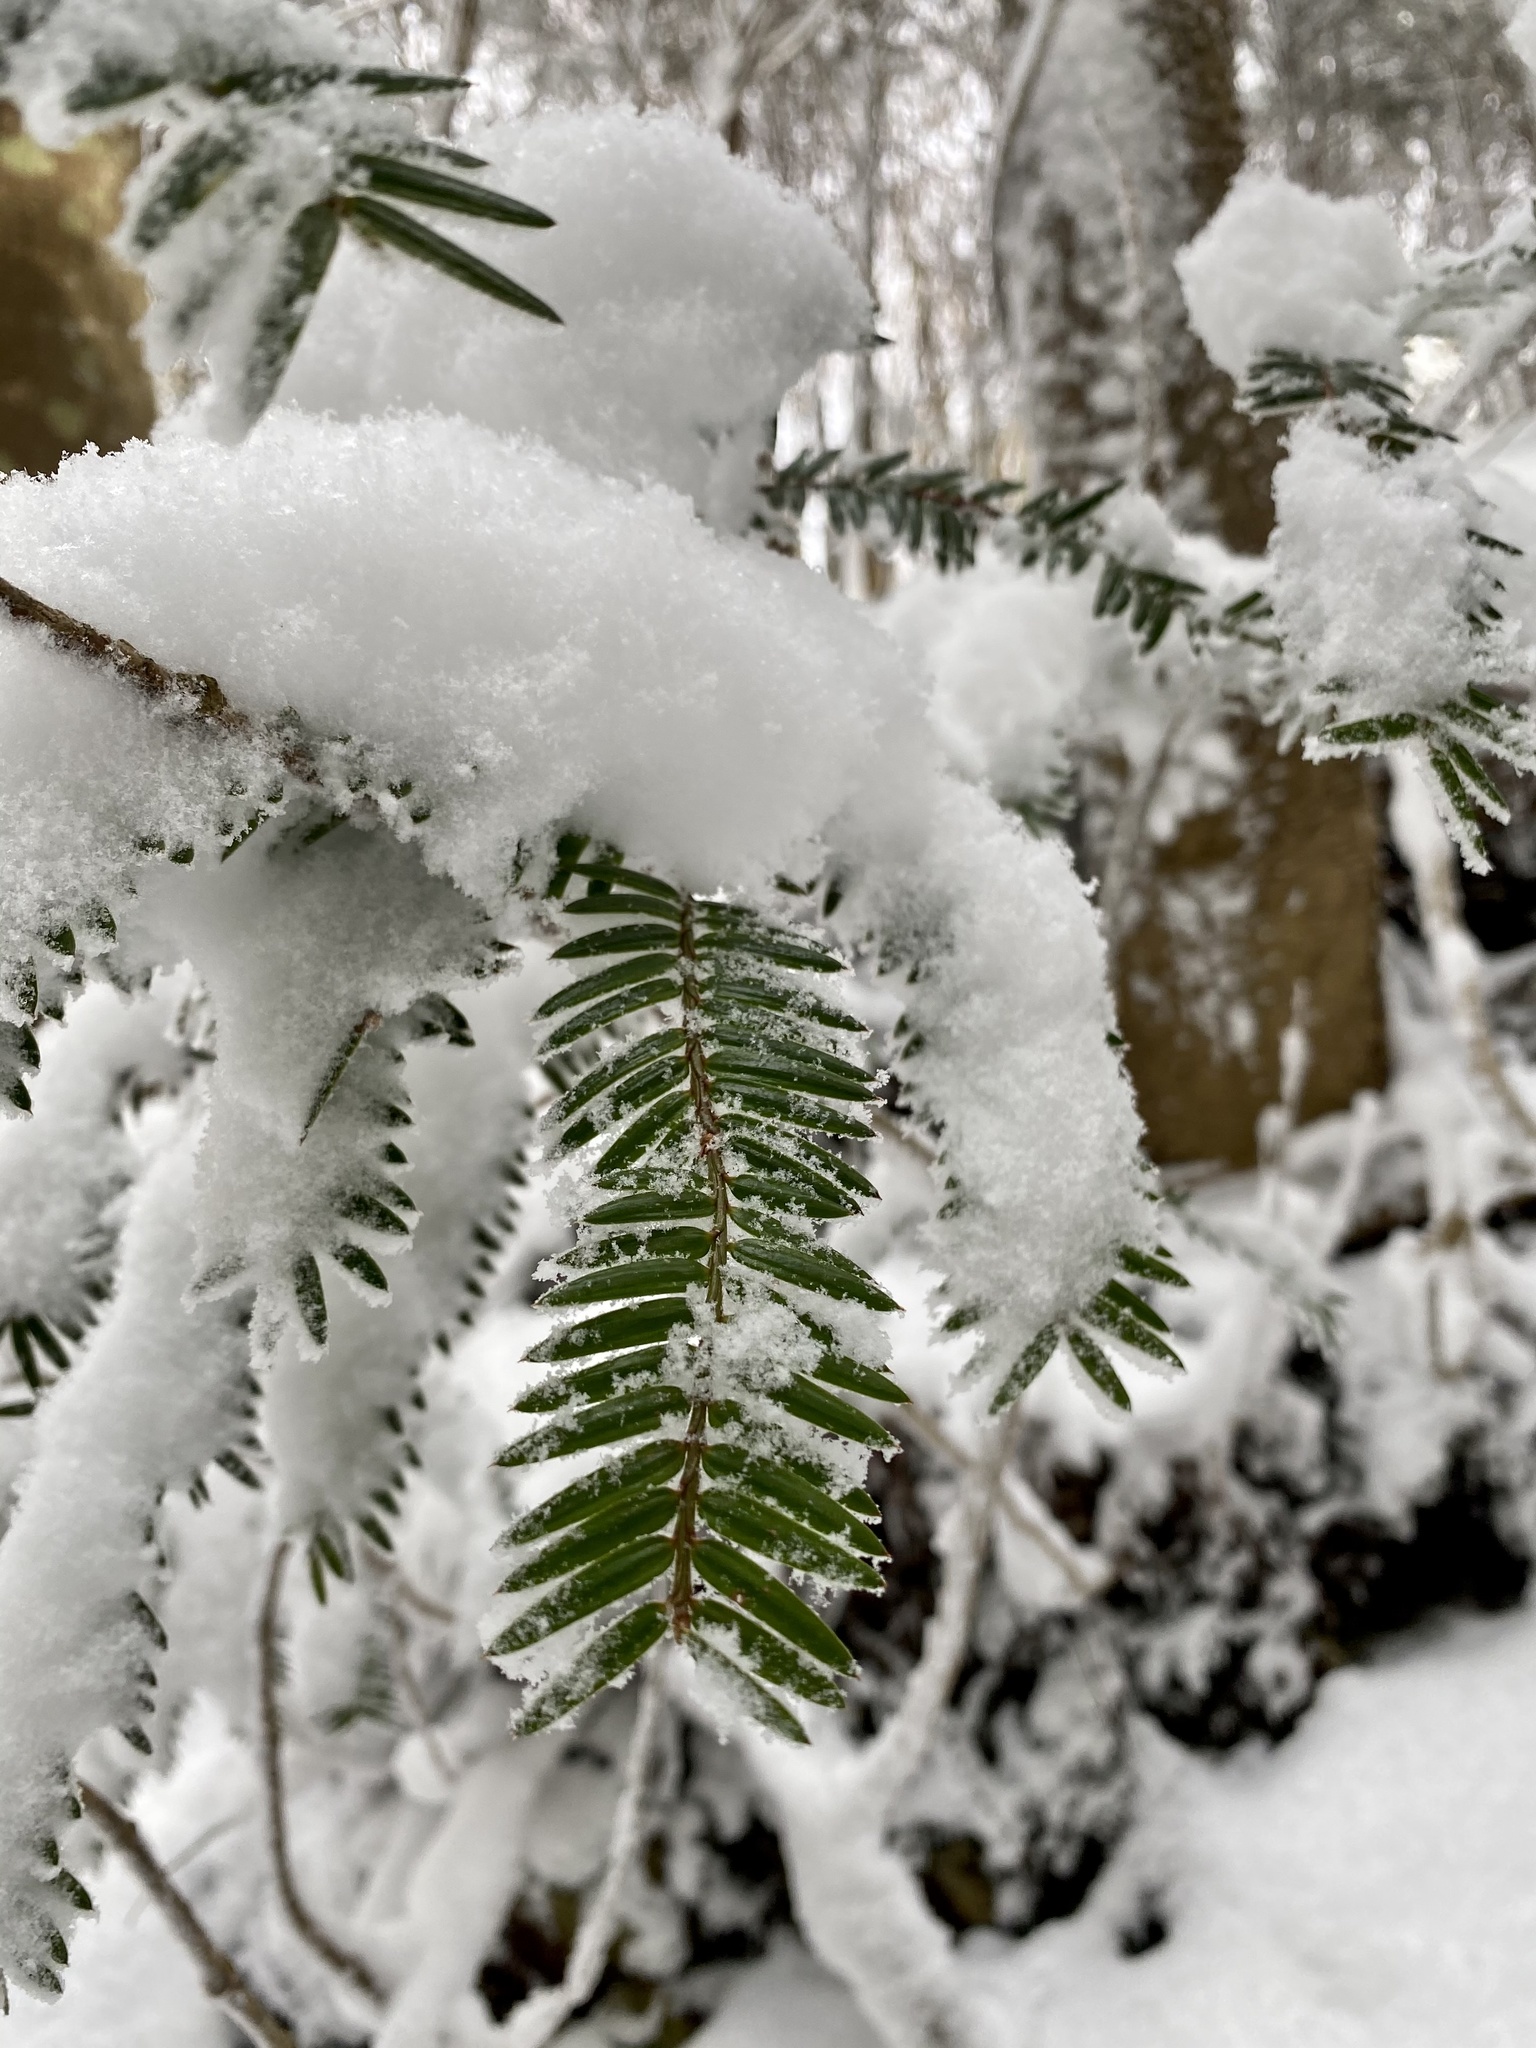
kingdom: Plantae
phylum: Tracheophyta
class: Pinopsida
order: Pinales
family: Taxaceae
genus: Torreya
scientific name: Torreya nucifera
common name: Japanese nutmeg tree
